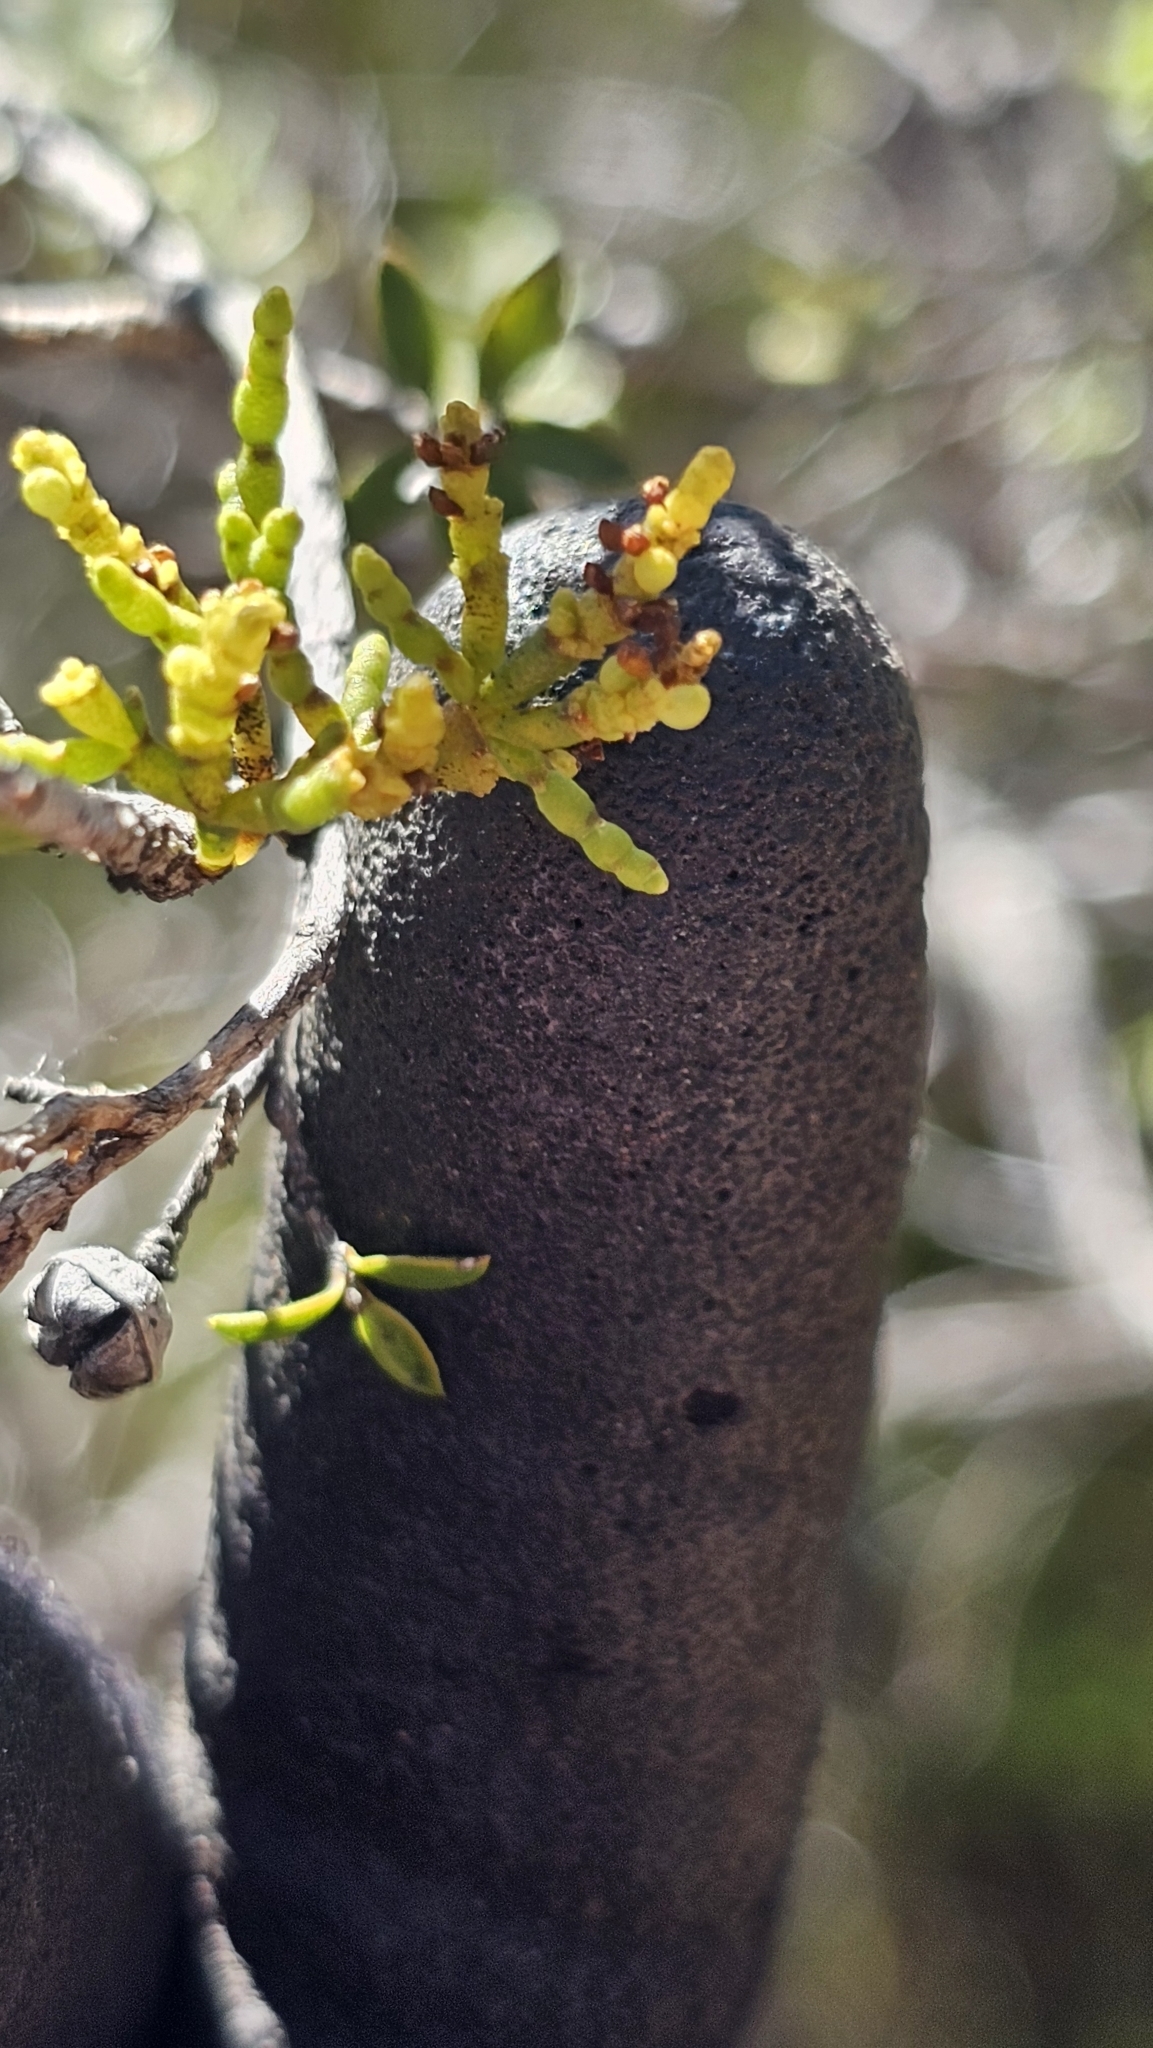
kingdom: Plantae
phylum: Tracheophyta
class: Magnoliopsida
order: Santalales
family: Viscaceae
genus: Korthalsella
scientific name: Korthalsella salicornioides
